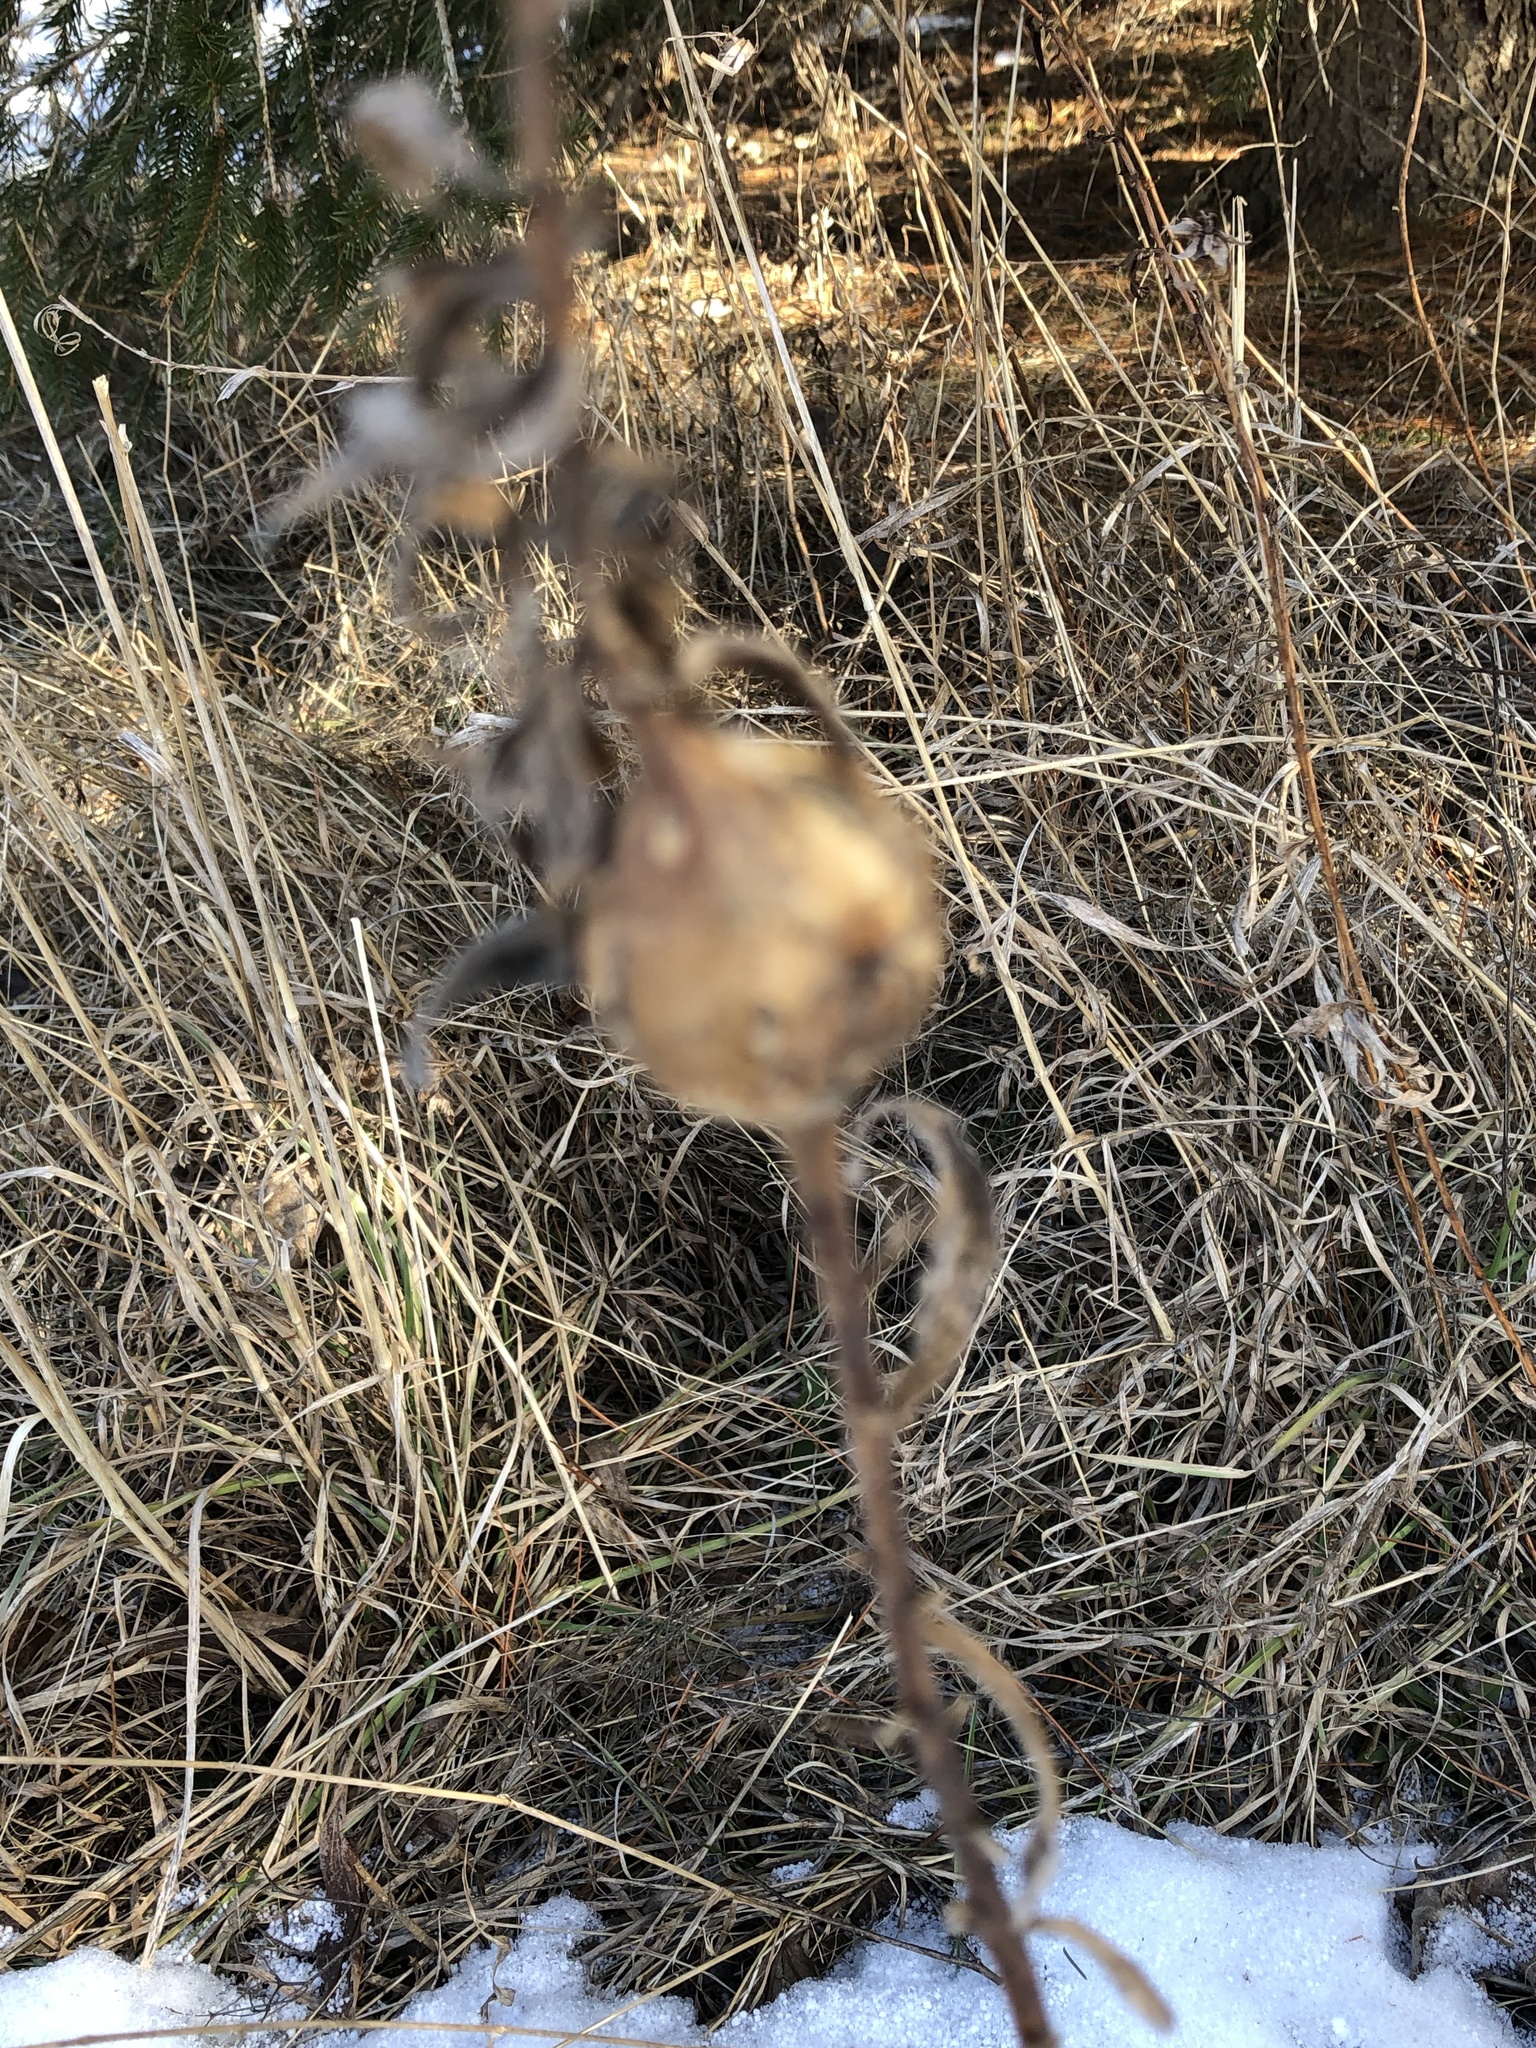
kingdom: Animalia
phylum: Arthropoda
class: Insecta
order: Diptera
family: Tephritidae
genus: Eurosta
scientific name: Eurosta solidaginis
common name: Goldenrod gall fly
